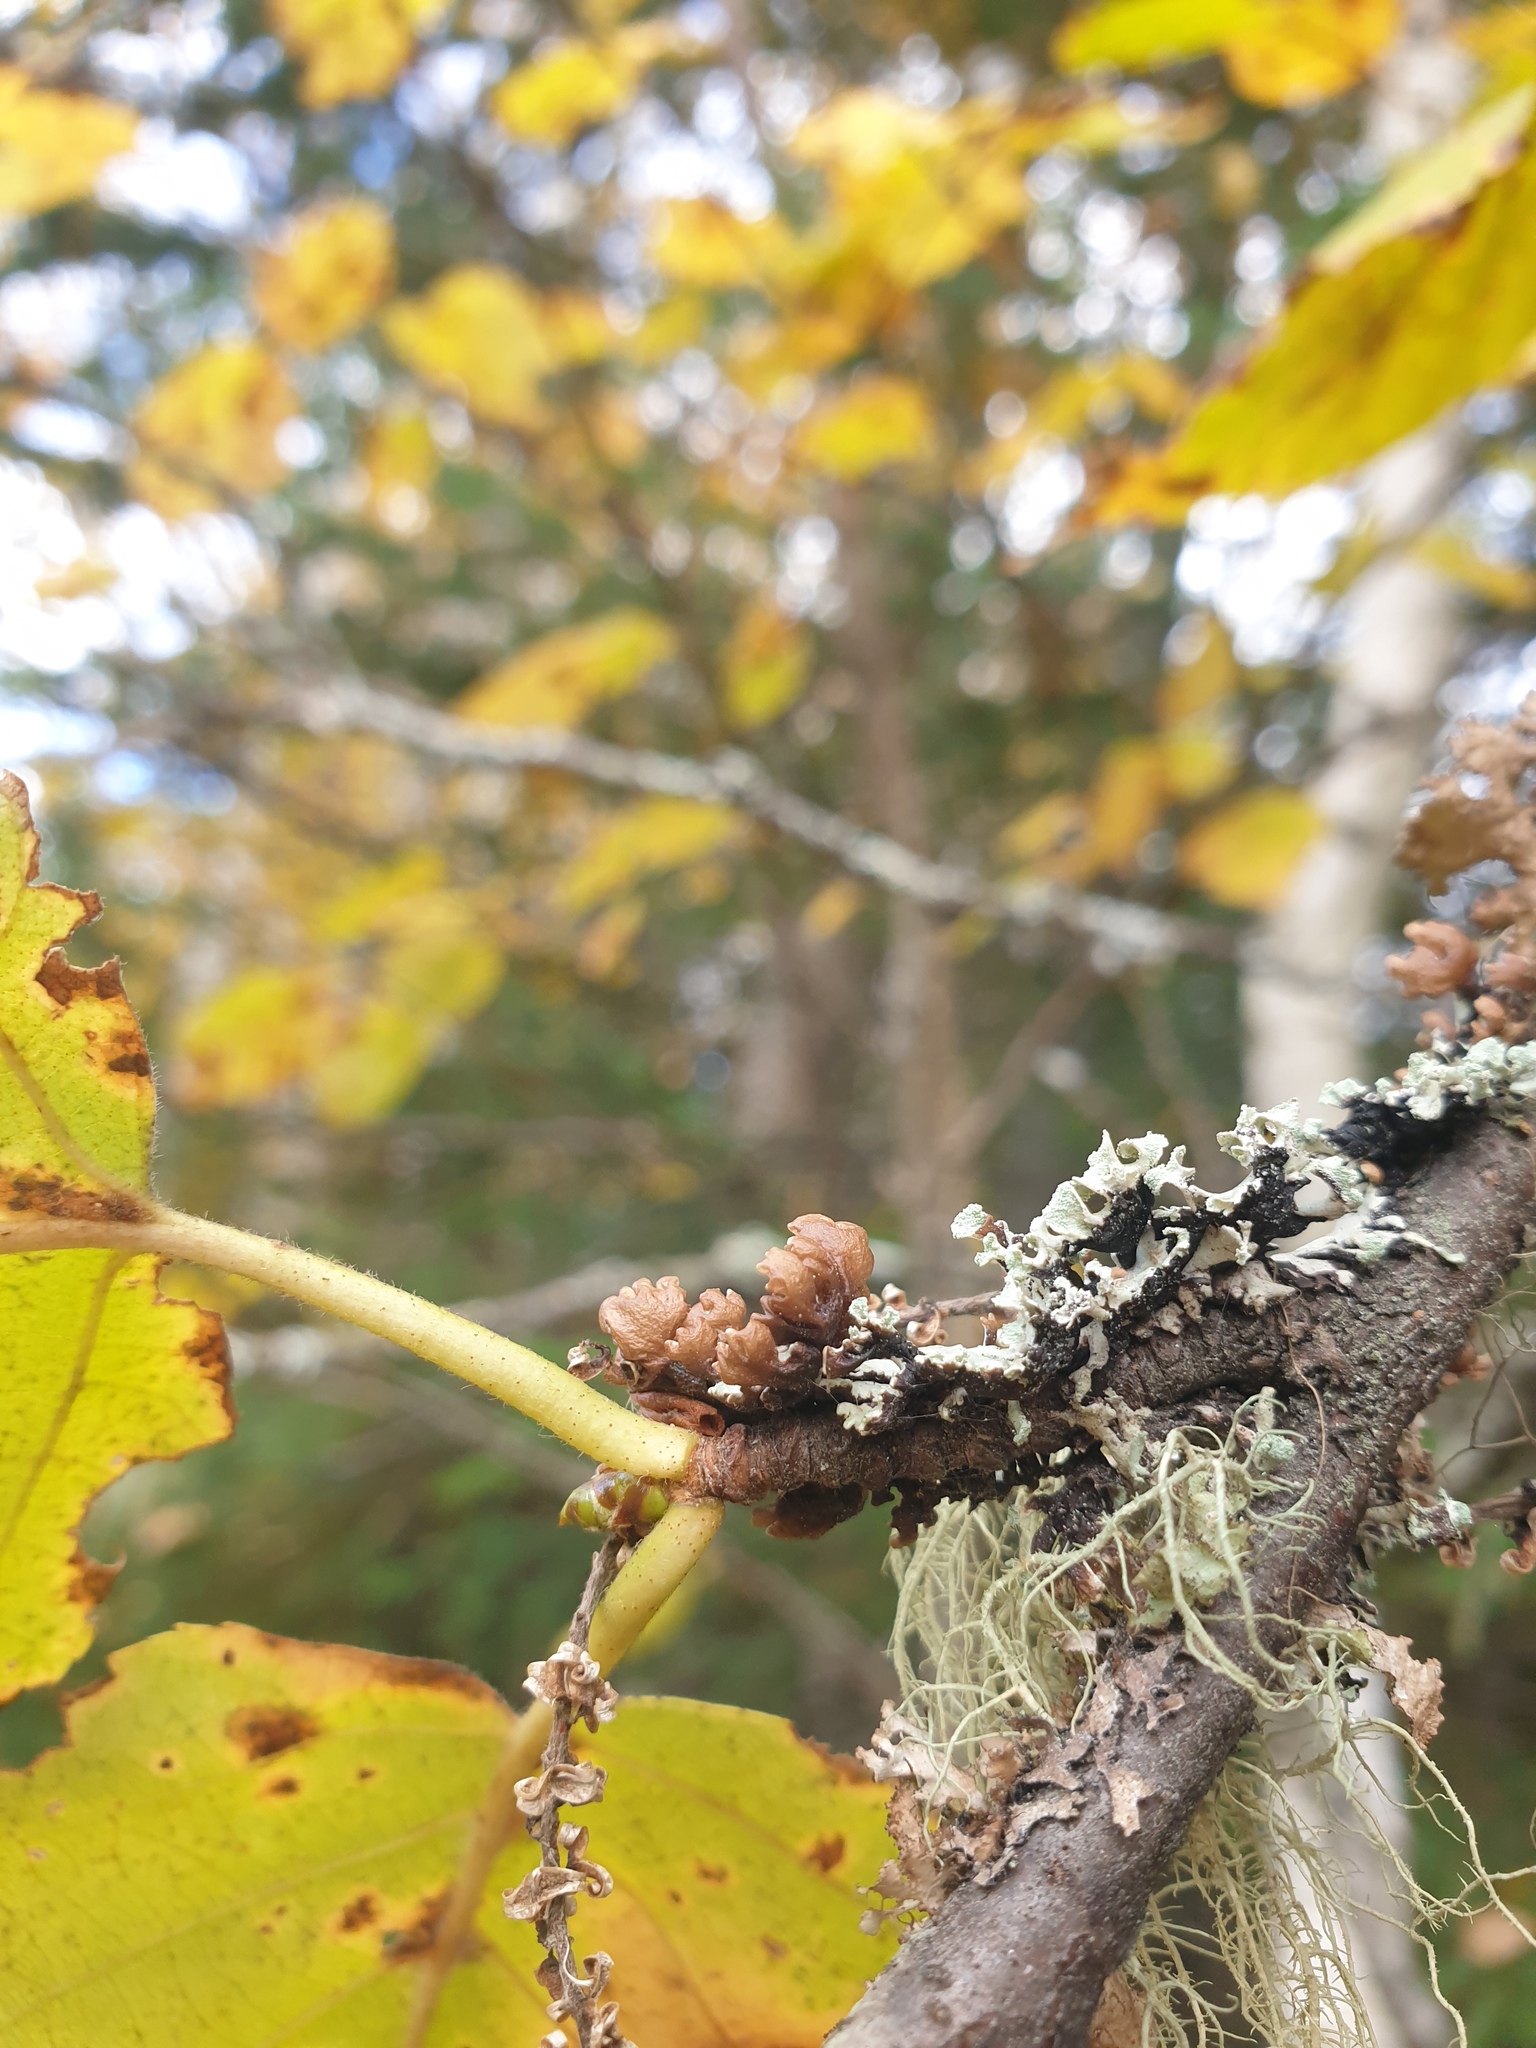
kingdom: Fungi
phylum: Ascomycota
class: Lecanoromycetes
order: Lecanorales
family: Parmeliaceae
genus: Hypogymnia
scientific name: Hypogymnia physodes
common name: Dark crottle
